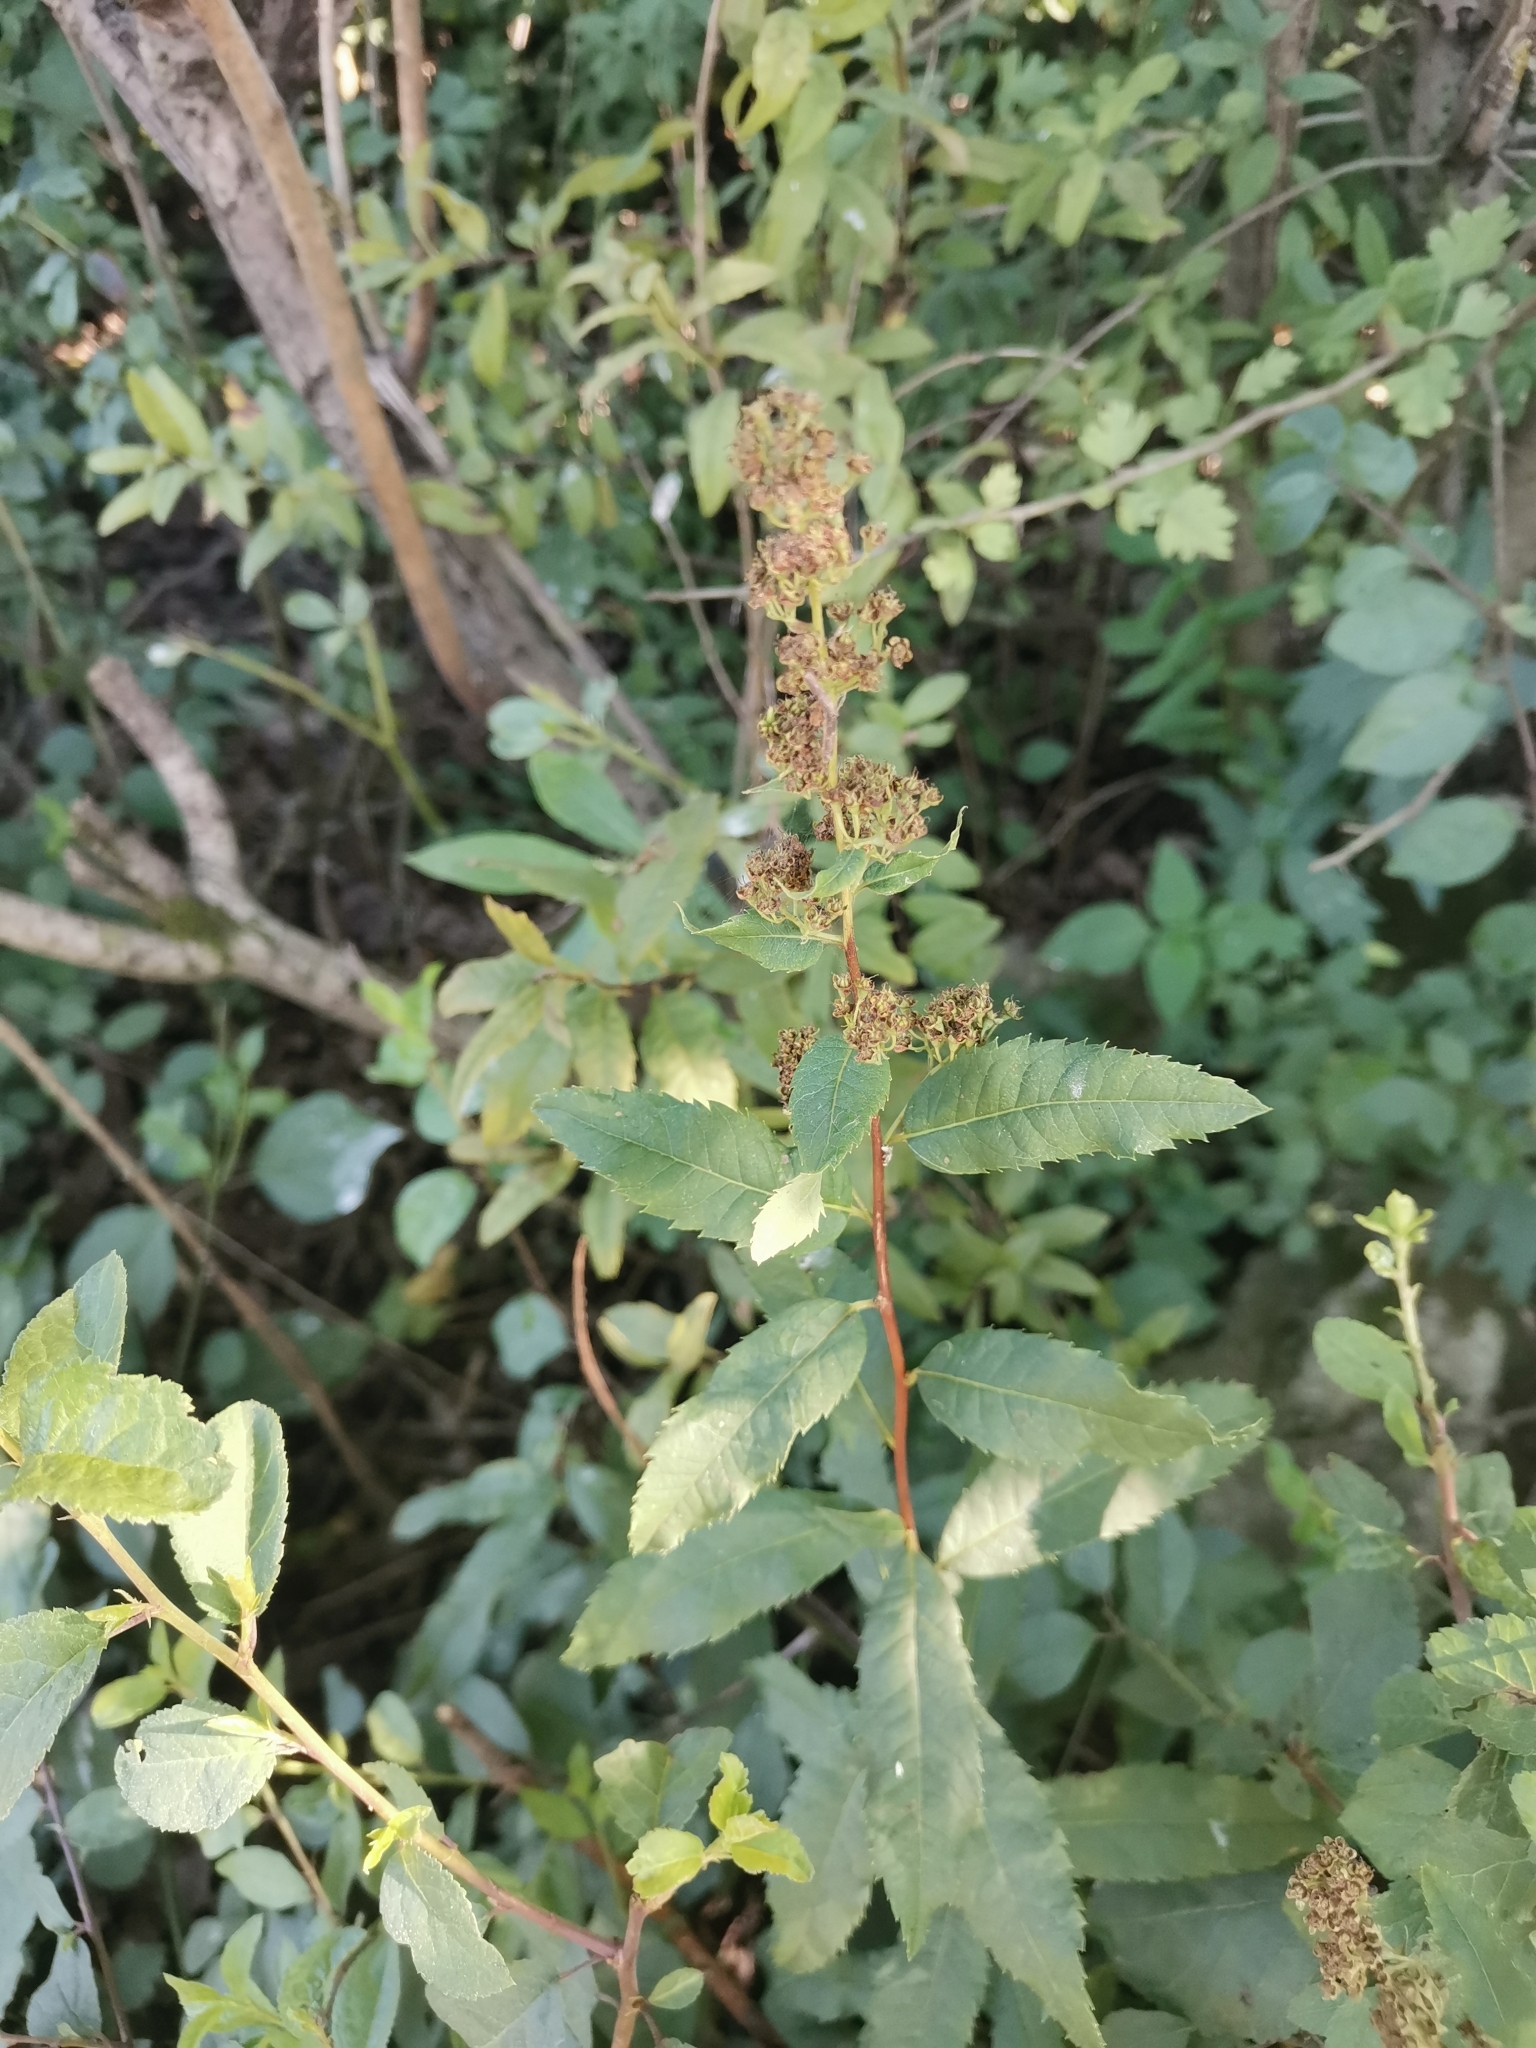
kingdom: Plantae
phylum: Tracheophyta
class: Magnoliopsida
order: Rosales
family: Rosaceae
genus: Spiraea
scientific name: Spiraea salicifolia
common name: Bridewort
